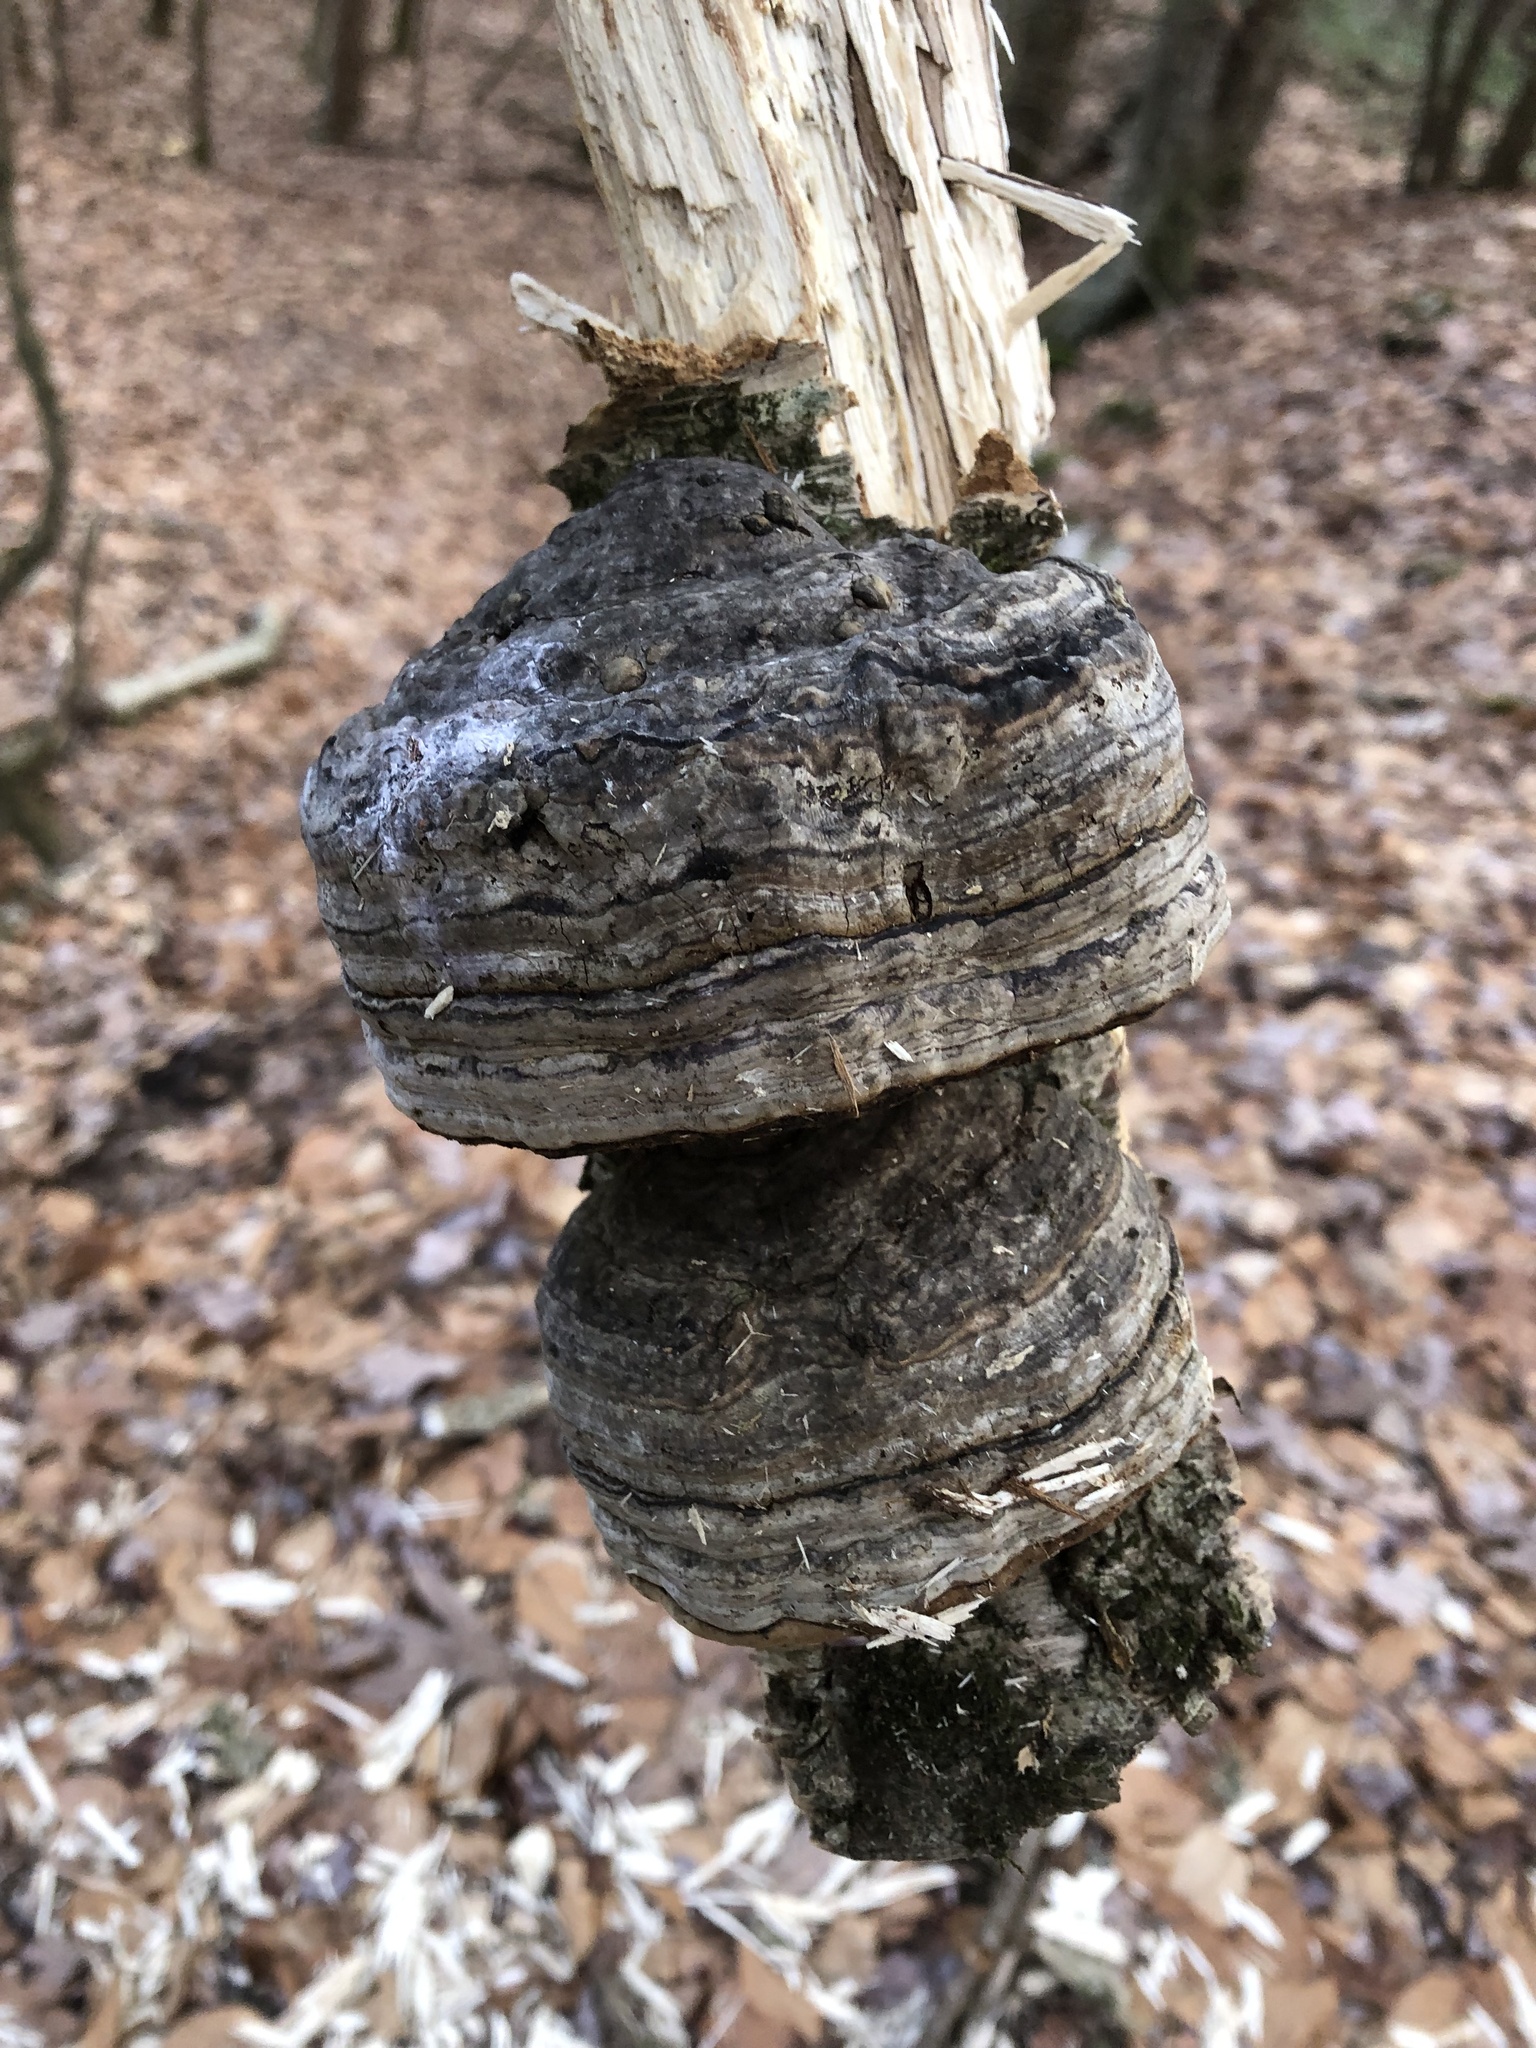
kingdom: Fungi
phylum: Basidiomycota
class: Agaricomycetes
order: Polyporales
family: Polyporaceae
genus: Fomes
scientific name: Fomes fomentarius
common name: Hoof fungus
